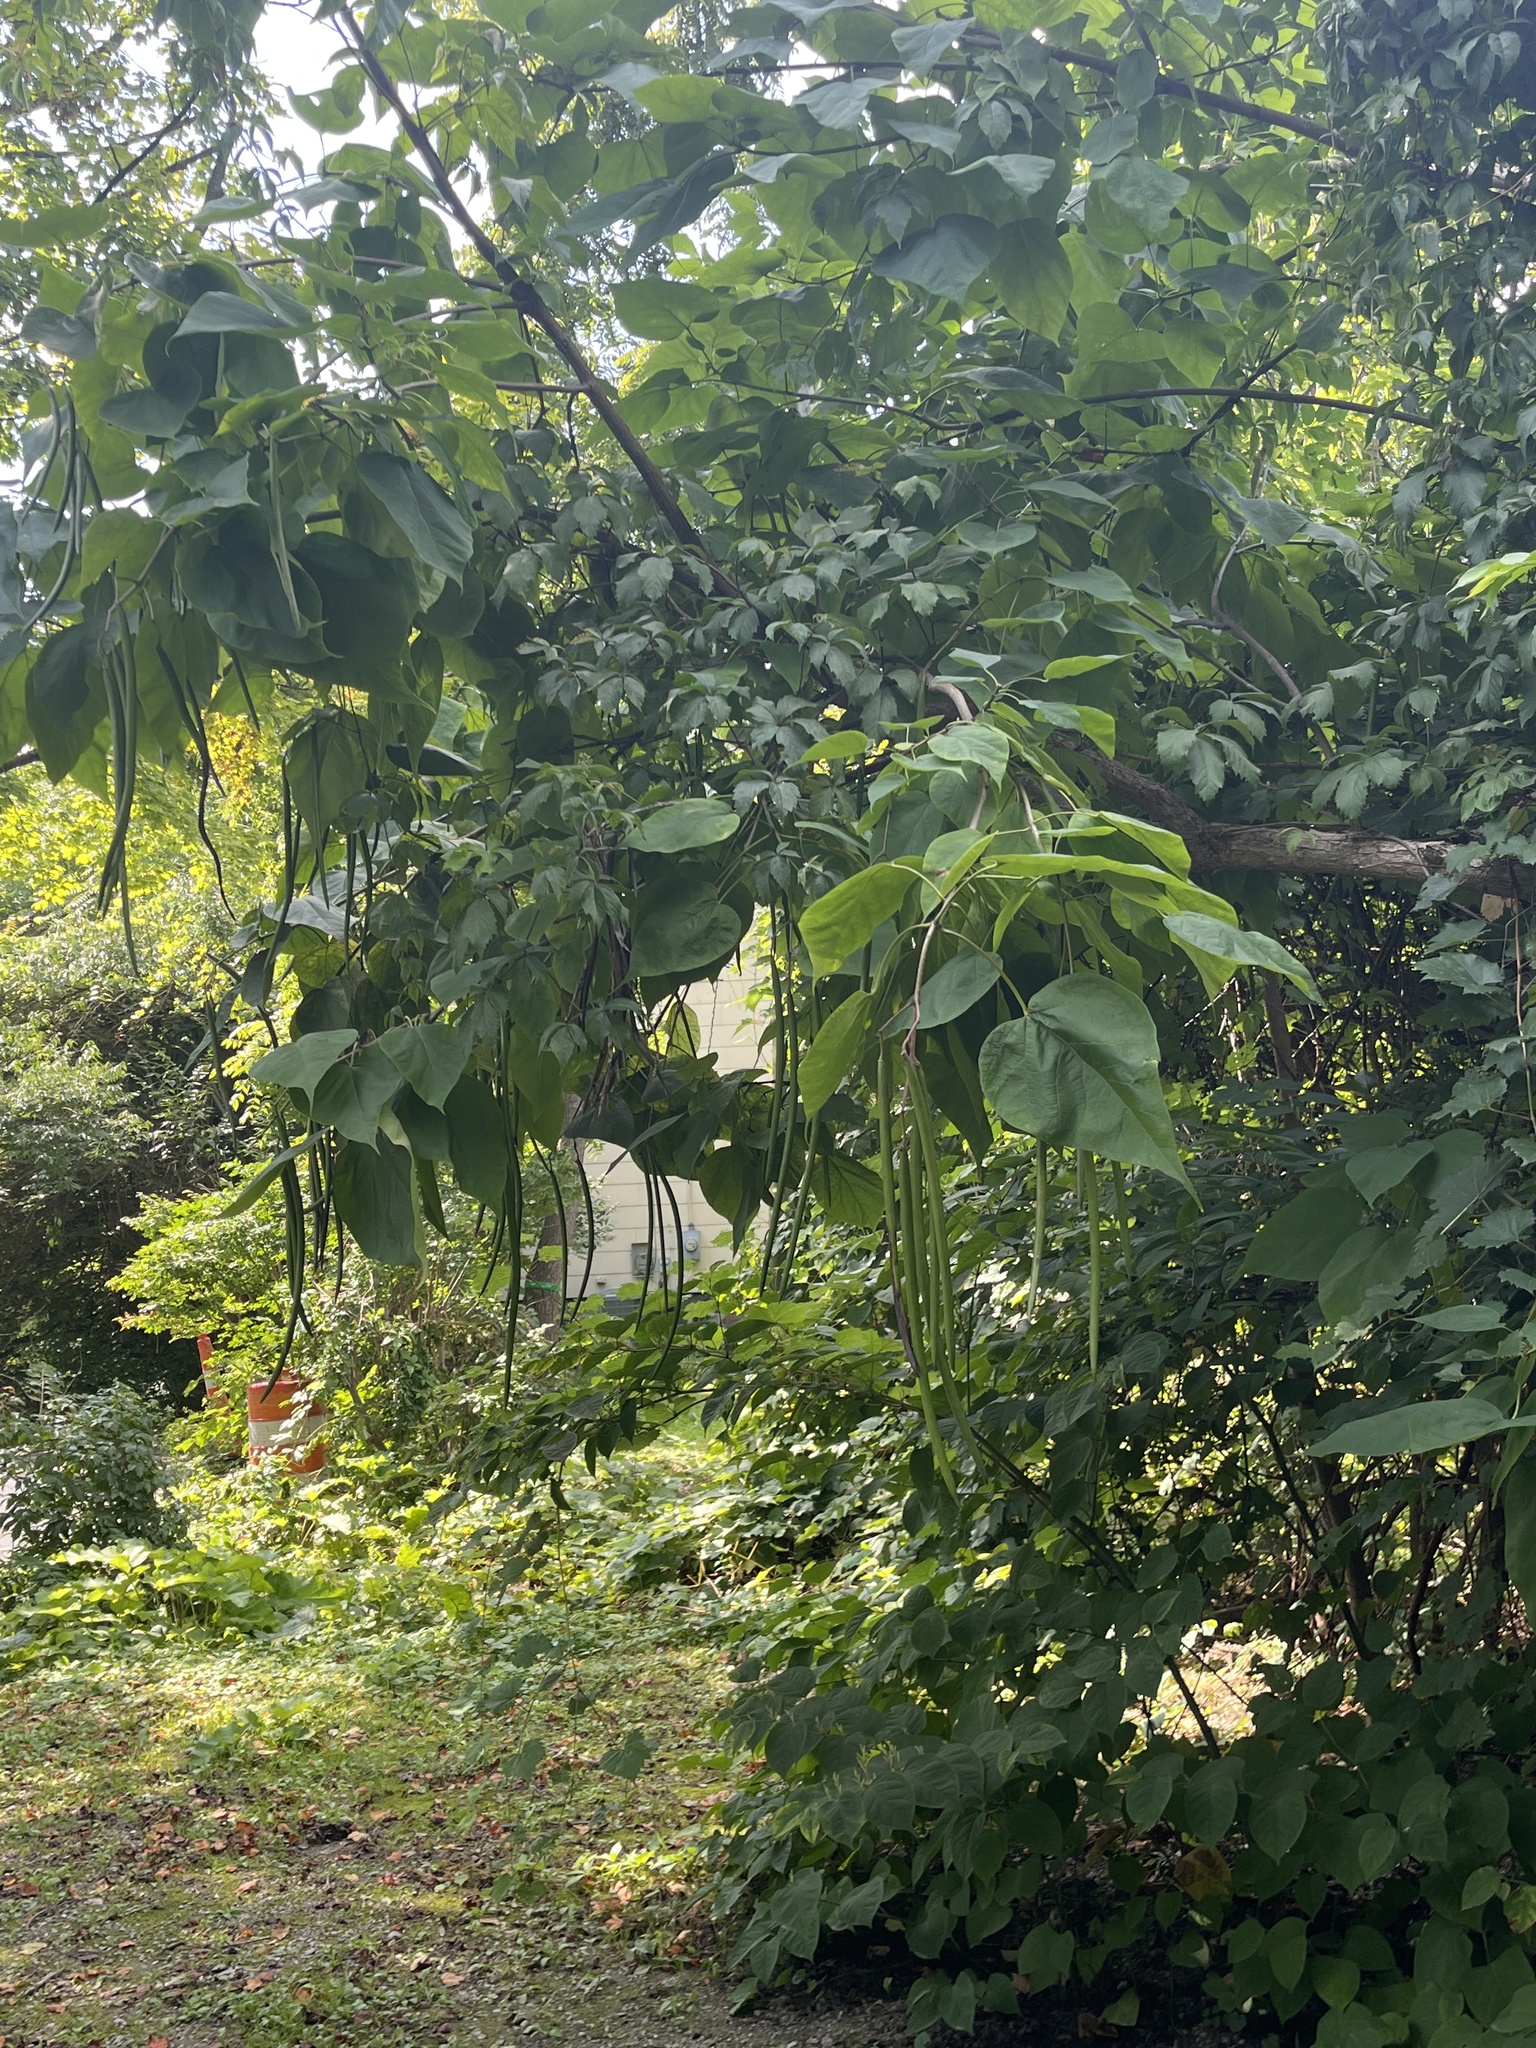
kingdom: Plantae
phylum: Tracheophyta
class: Magnoliopsida
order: Lamiales
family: Bignoniaceae
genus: Catalpa
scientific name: Catalpa speciosa
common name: Northern catalpa
